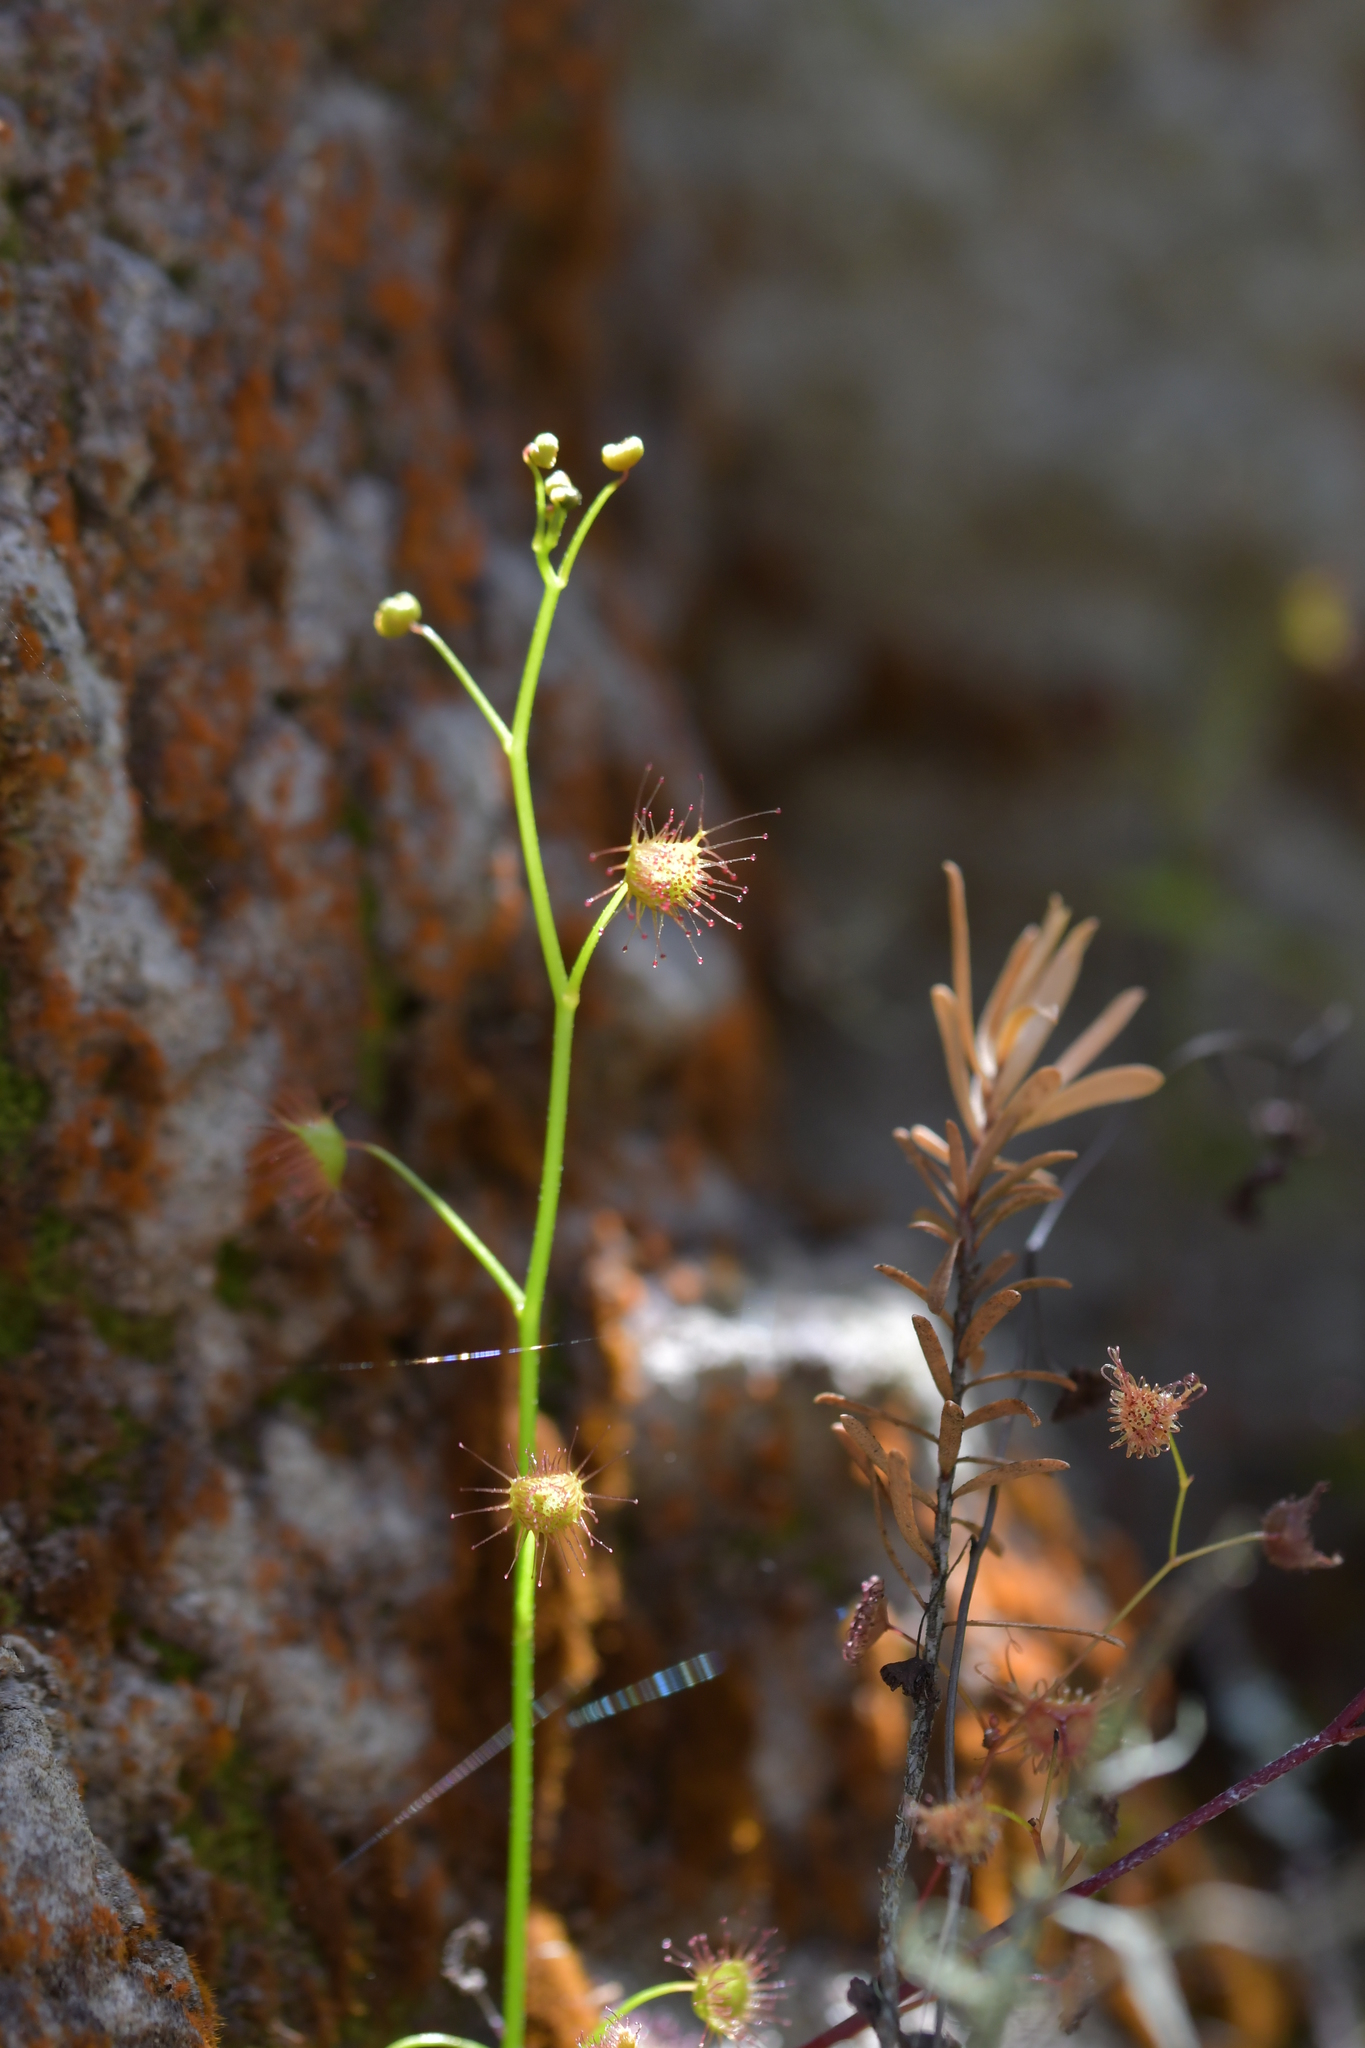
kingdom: Plantae
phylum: Tracheophyta
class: Magnoliopsida
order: Caryophyllales
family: Droseraceae
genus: Drosera
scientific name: Drosera peltata
